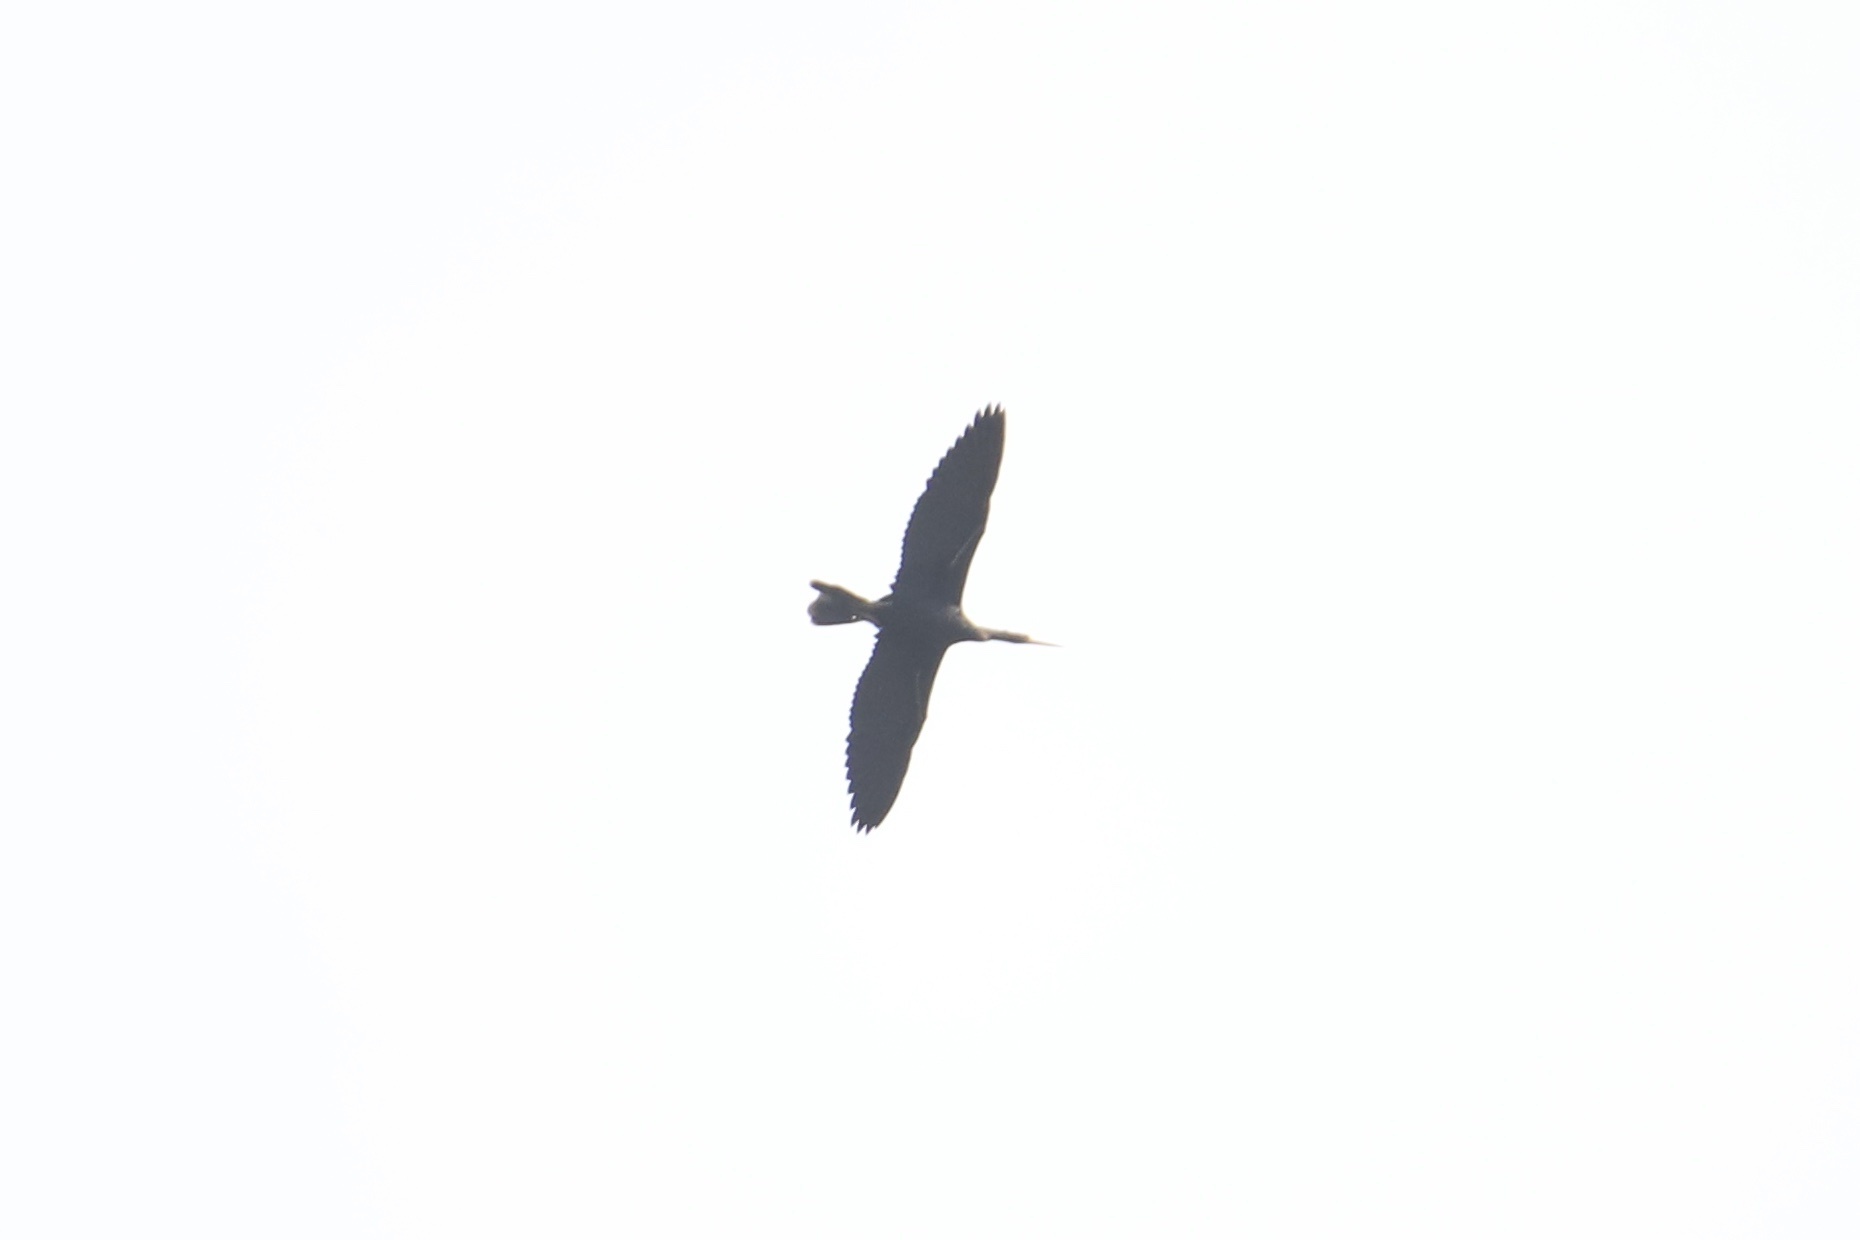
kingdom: Animalia
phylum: Chordata
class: Aves
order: Suliformes
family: Anhingidae
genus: Anhinga
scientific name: Anhinga anhinga
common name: Anhinga
